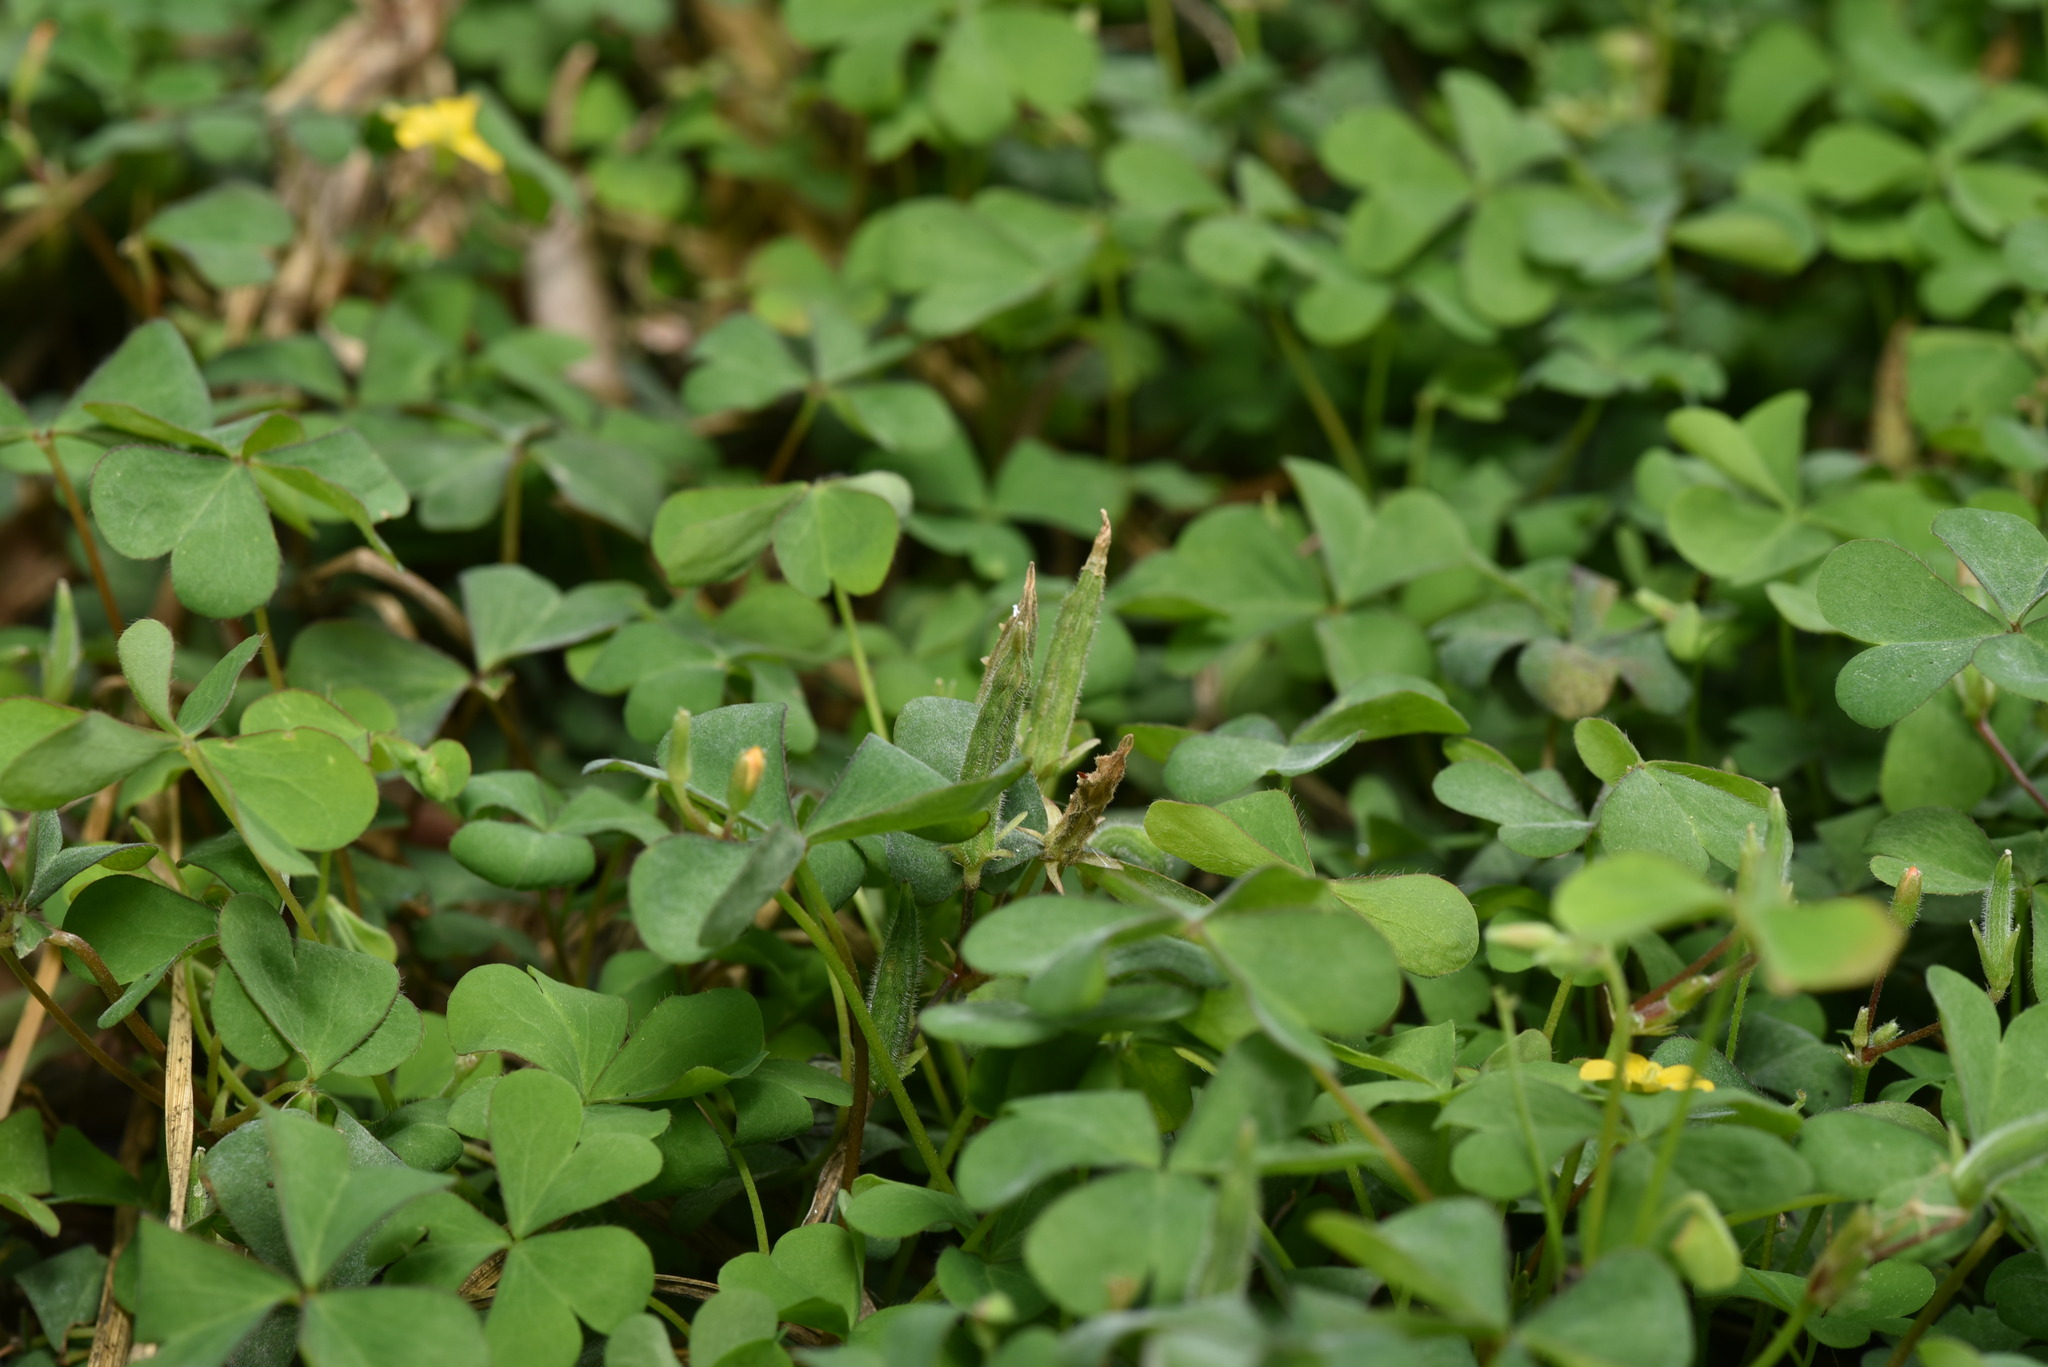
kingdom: Plantae
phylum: Tracheophyta
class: Magnoliopsida
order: Oxalidales
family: Oxalidaceae
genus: Oxalis
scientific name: Oxalis corniculata
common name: Procumbent yellow-sorrel
